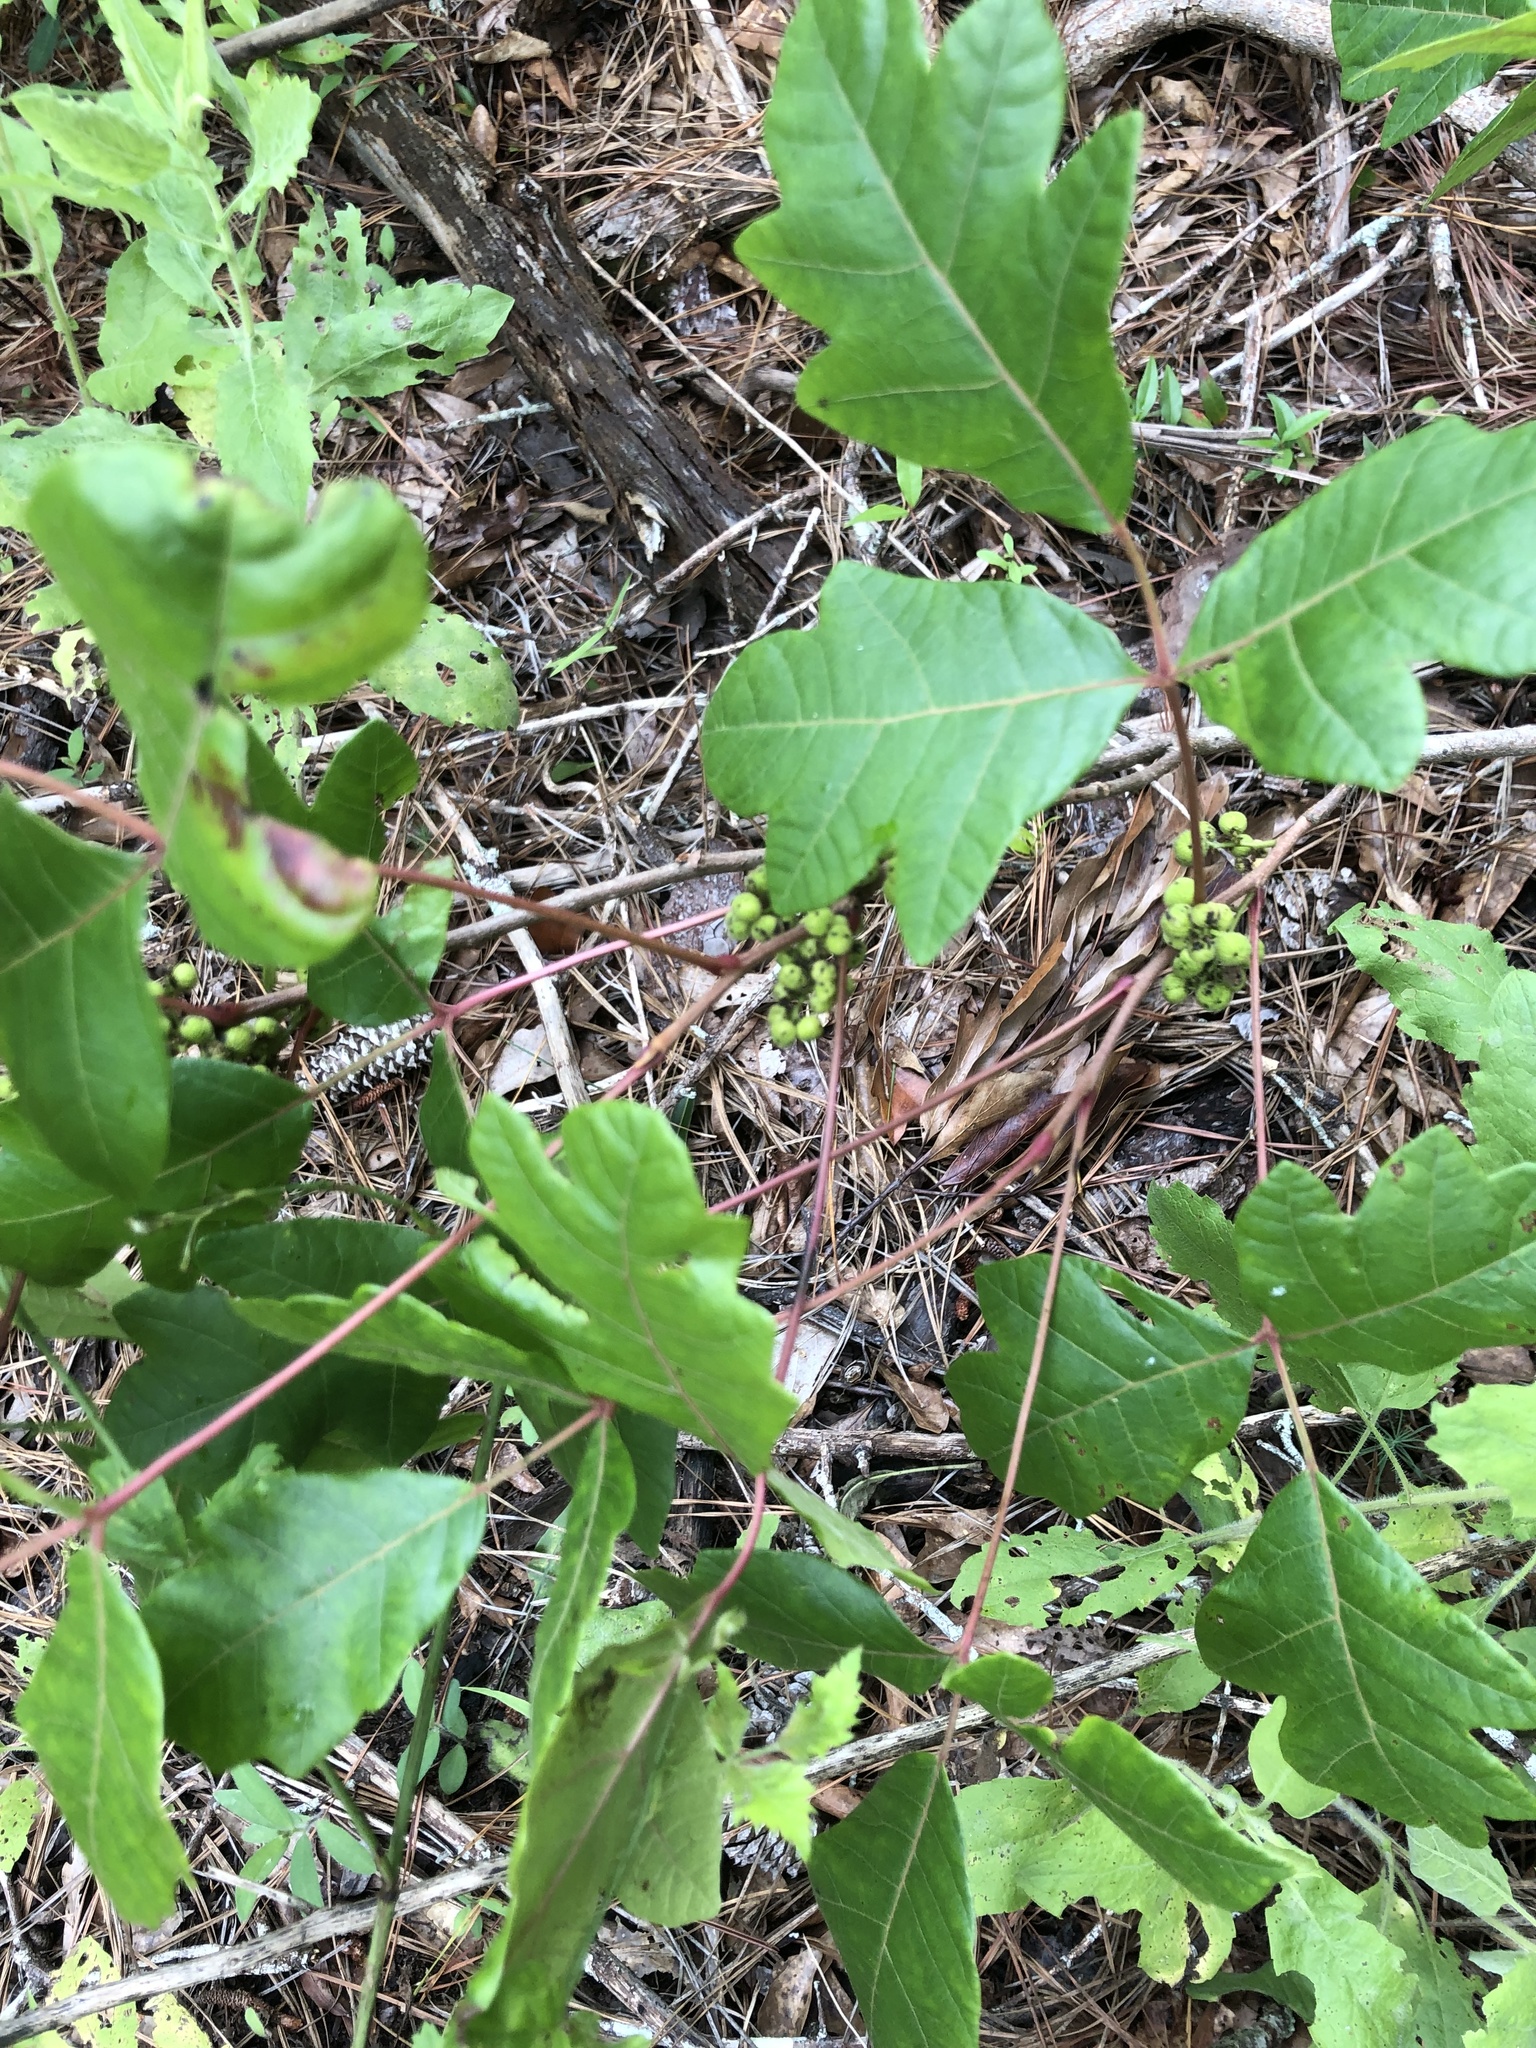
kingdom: Plantae
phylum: Tracheophyta
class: Magnoliopsida
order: Sapindales
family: Anacardiaceae
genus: Toxicodendron
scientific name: Toxicodendron pubescens
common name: Eastern poison-oak
